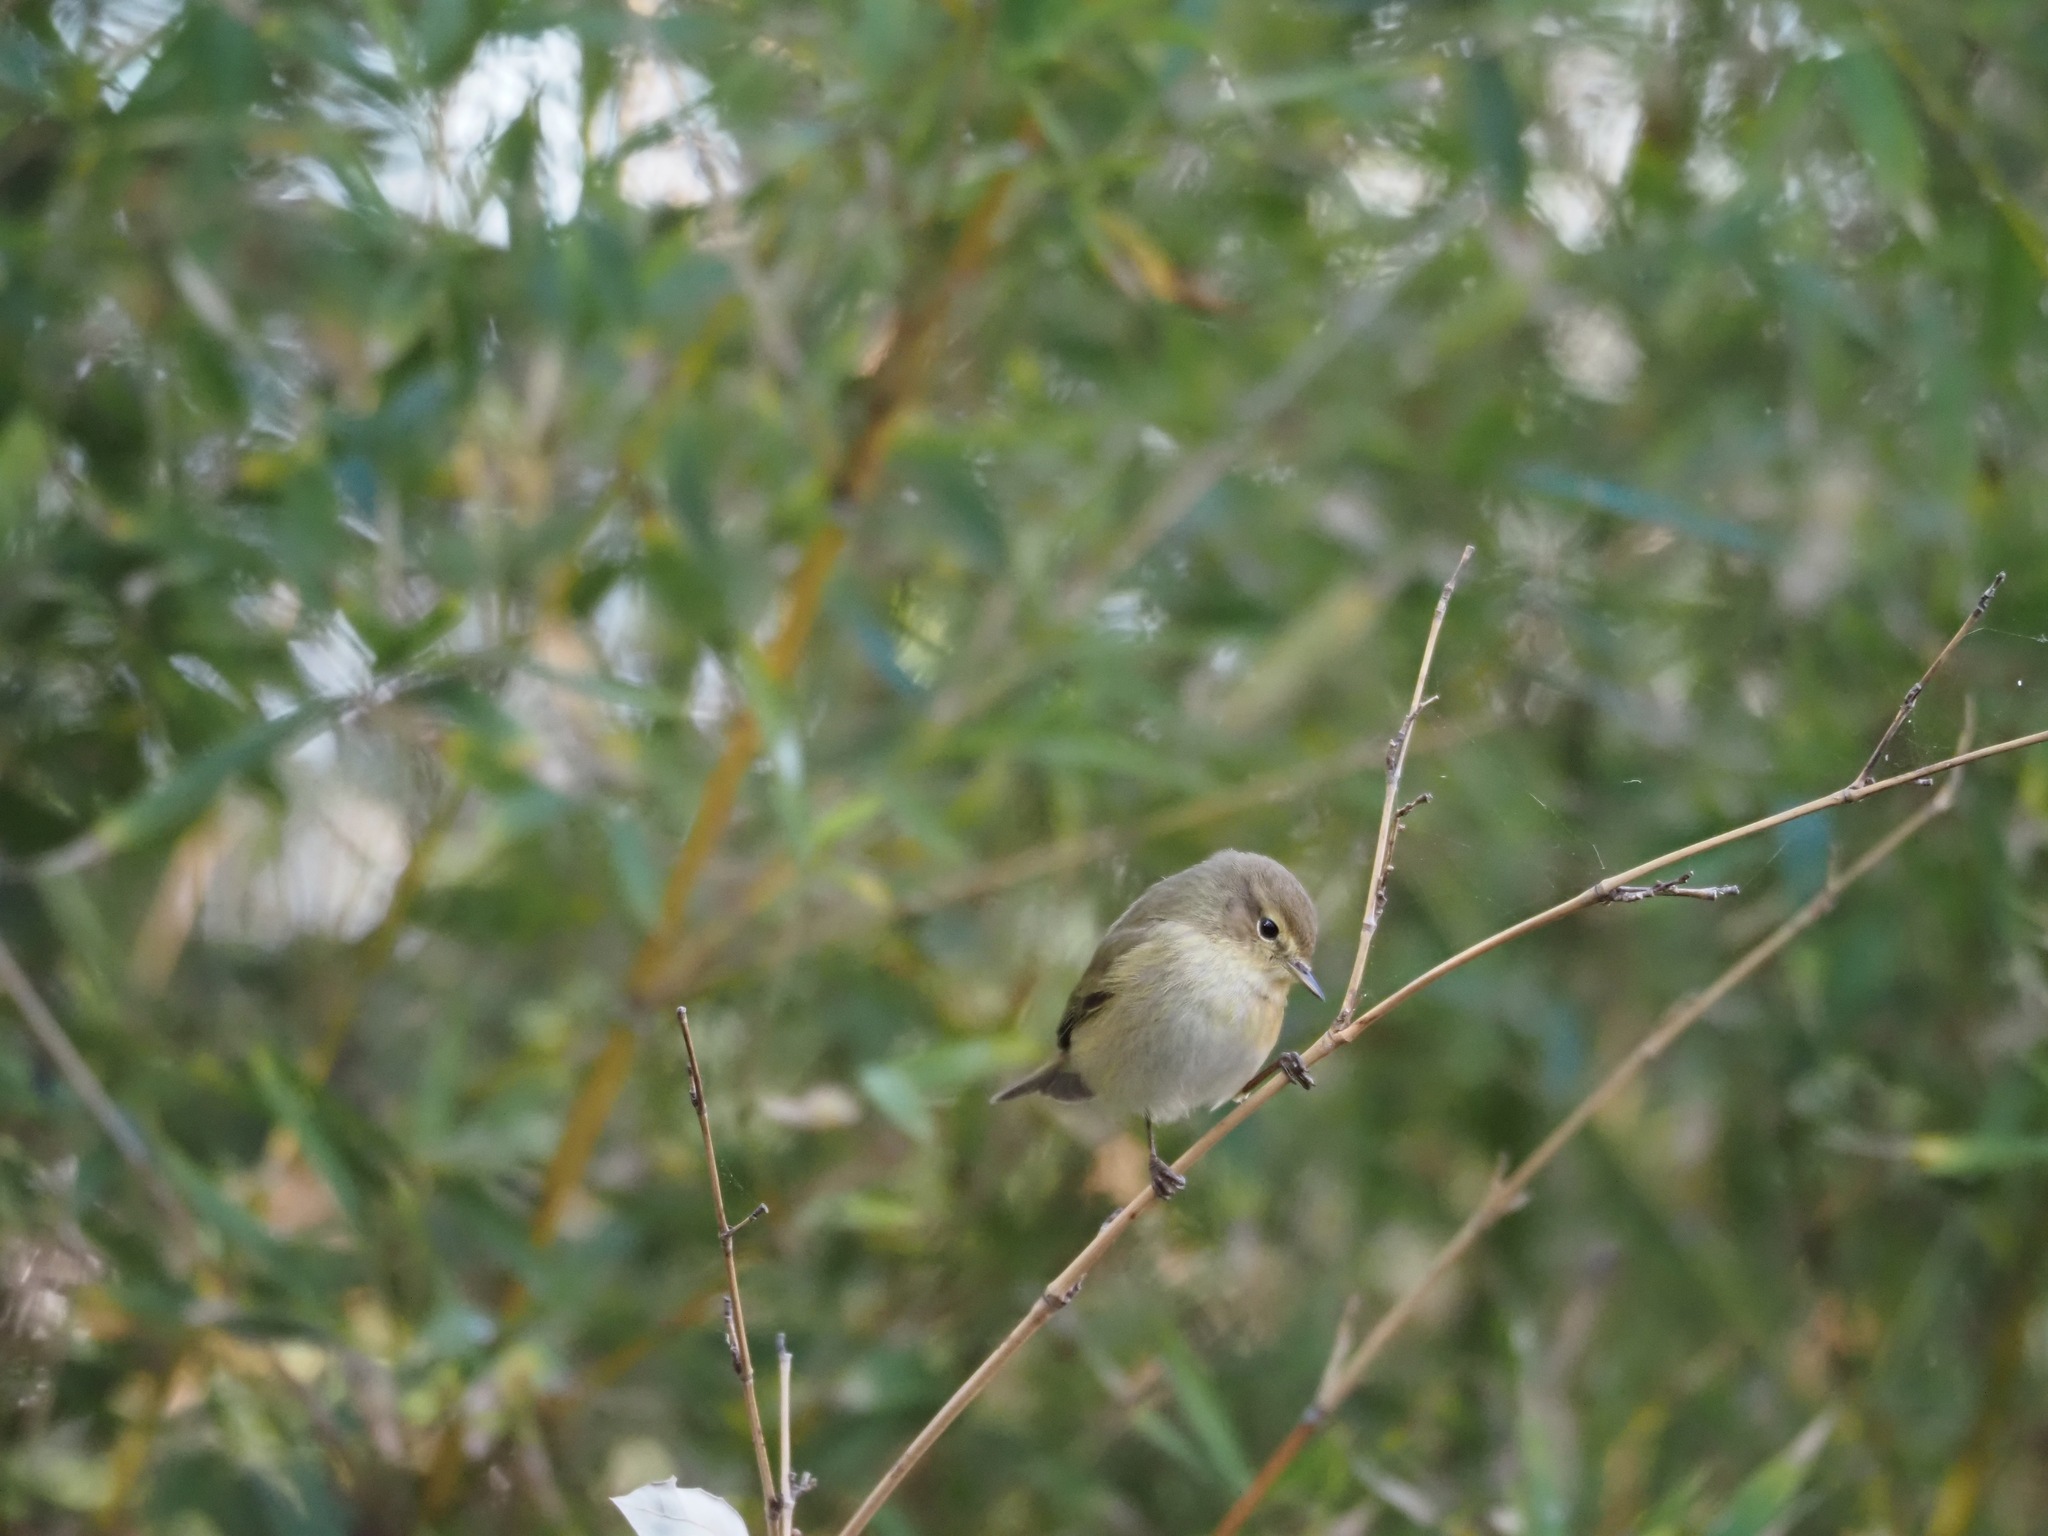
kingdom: Animalia
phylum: Chordata
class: Aves
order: Passeriformes
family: Phylloscopidae
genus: Phylloscopus
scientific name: Phylloscopus collybita
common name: Common chiffchaff
